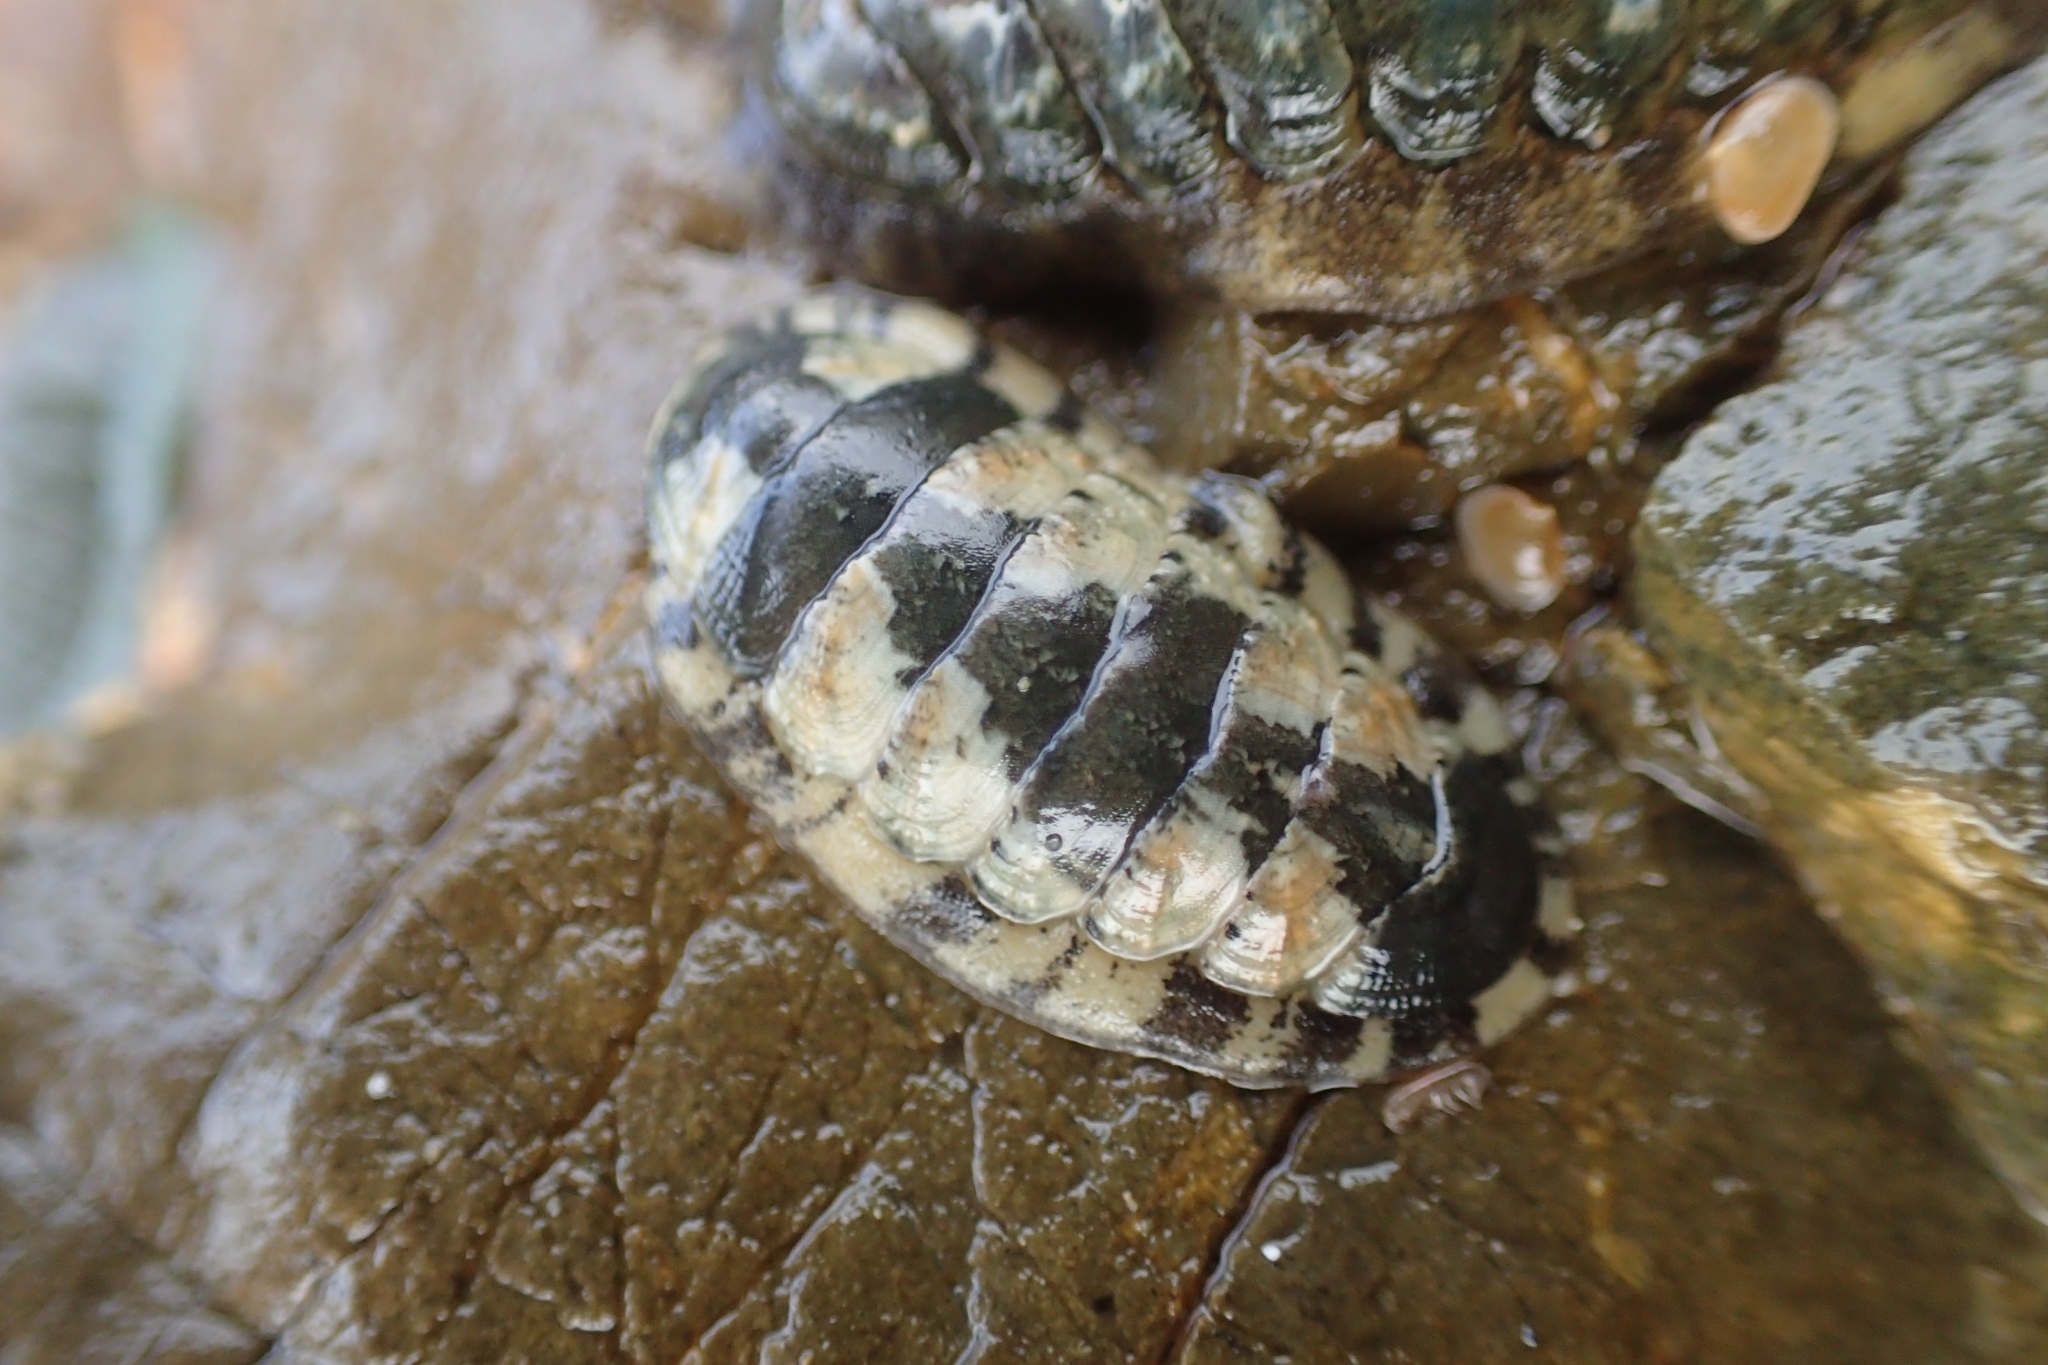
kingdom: Animalia
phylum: Mollusca
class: Polyplacophora
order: Chitonida
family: Ischnochitonidae
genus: Ischnochiton
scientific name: Ischnochiton maorianus
